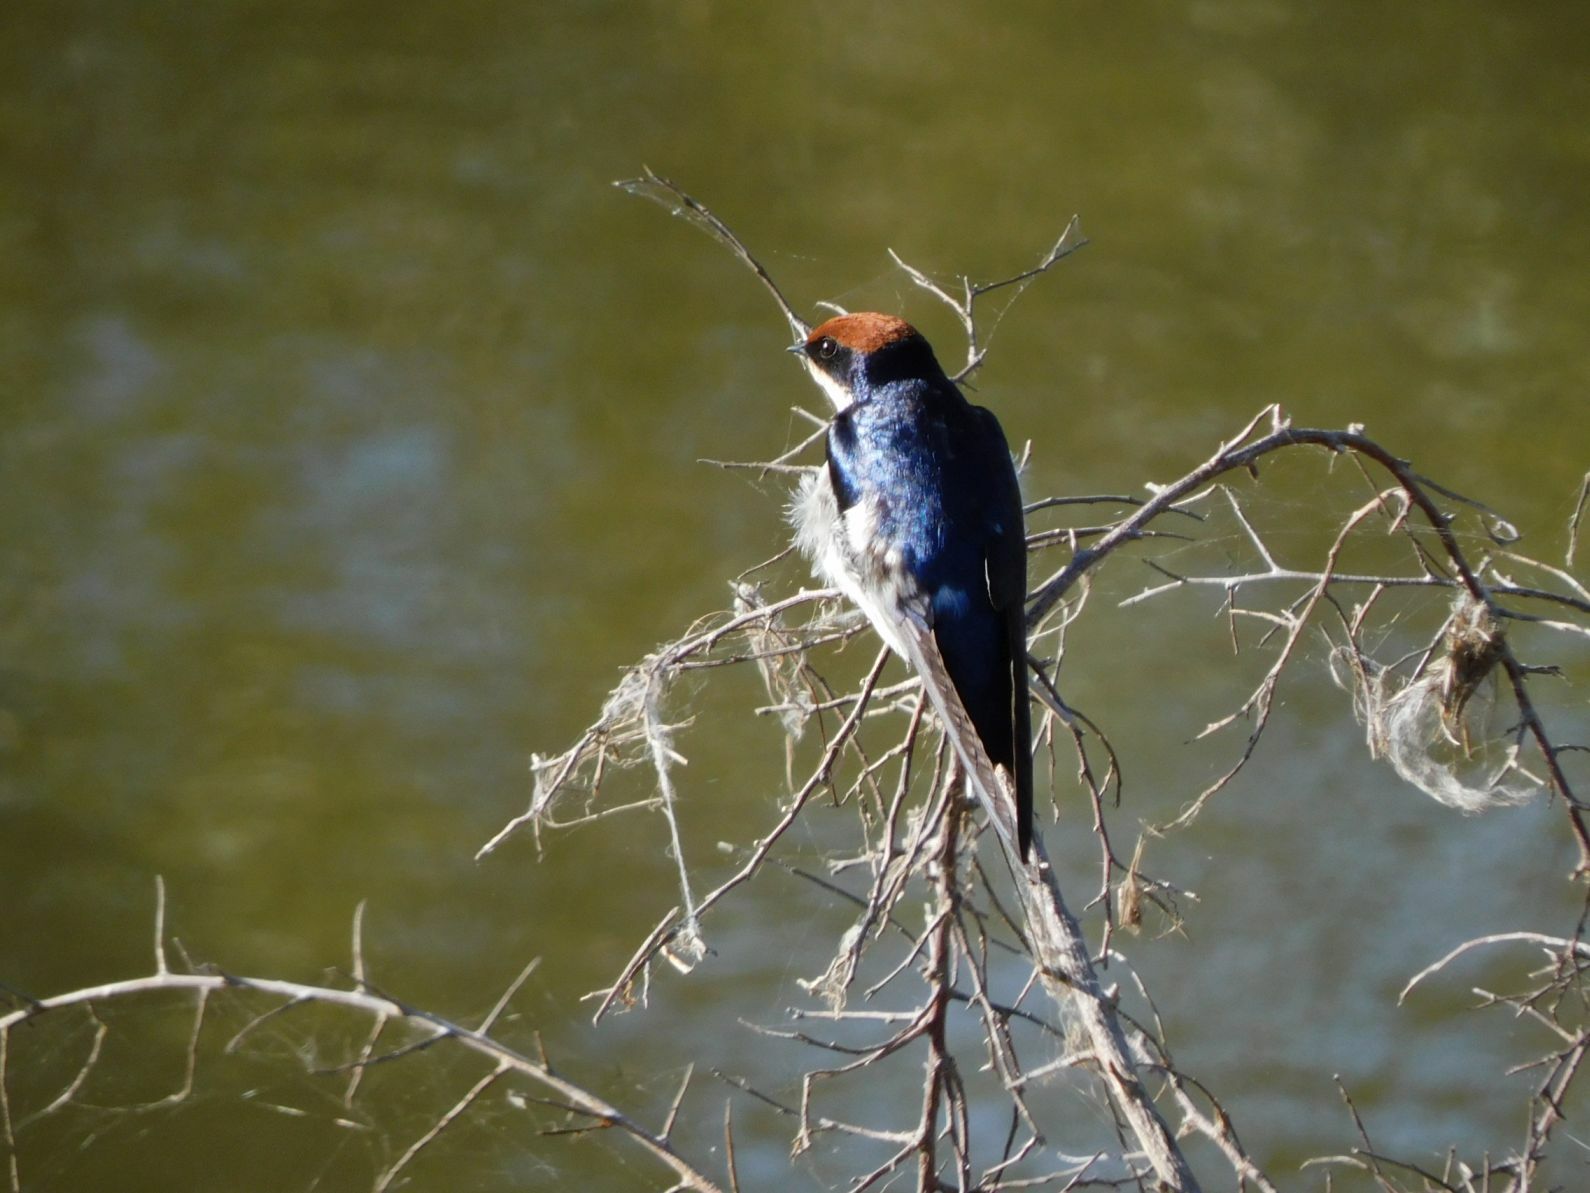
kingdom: Animalia
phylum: Chordata
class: Aves
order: Passeriformes
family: Hirundinidae
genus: Hirundo
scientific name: Hirundo smithii
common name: Wire-tailed swallow
